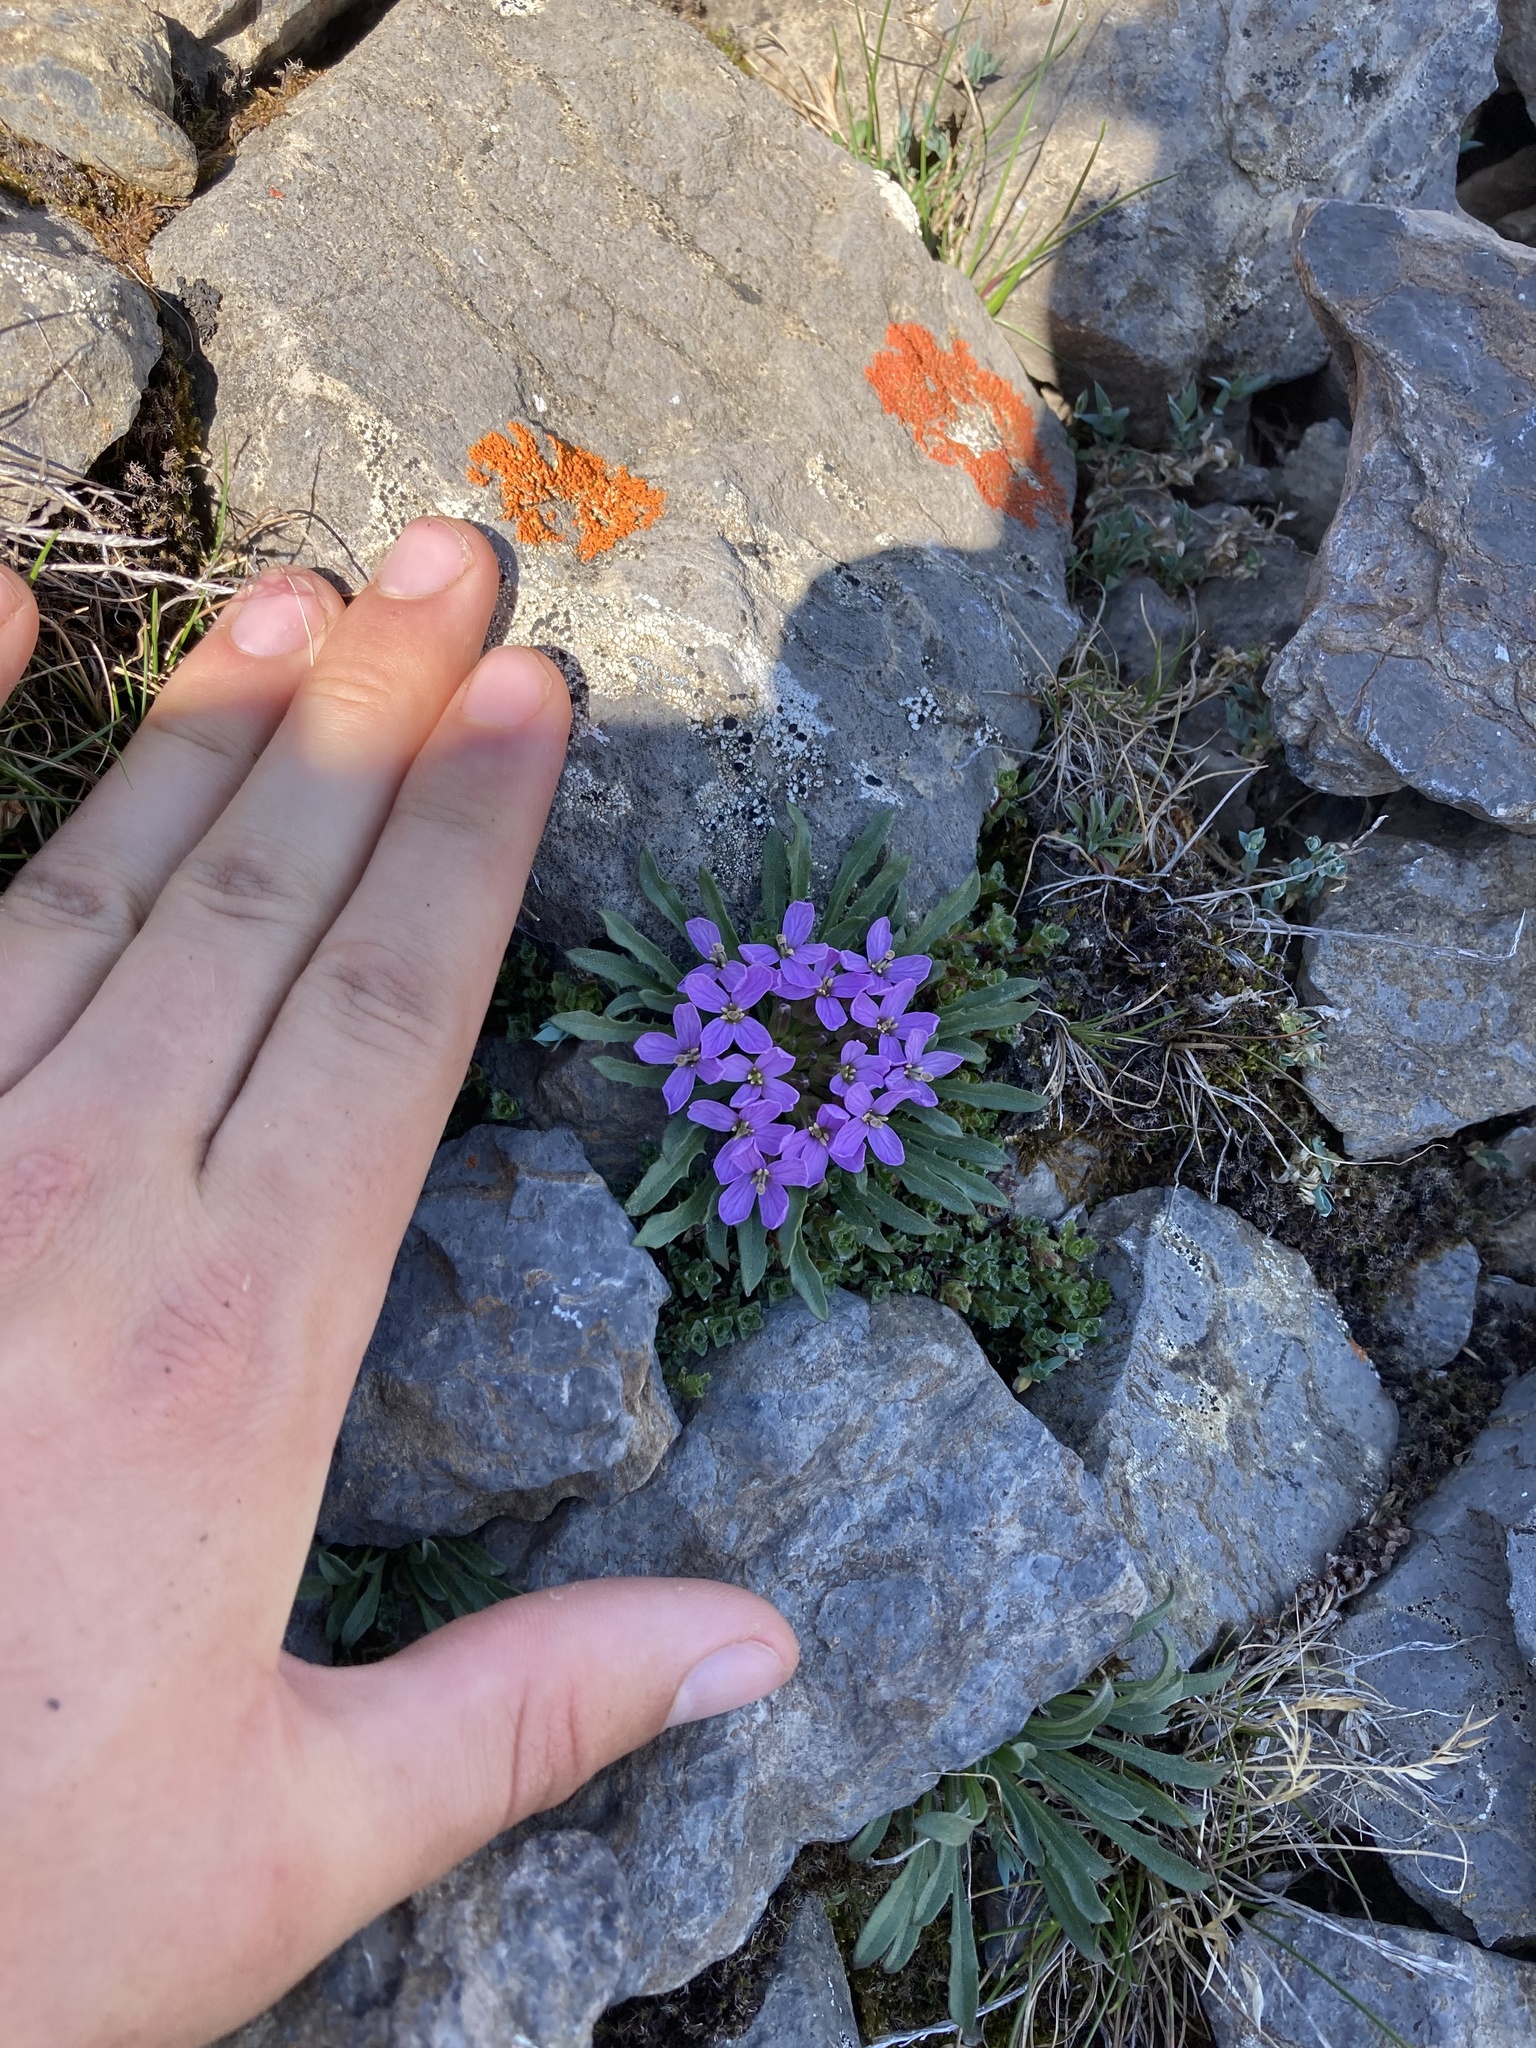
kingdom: Plantae
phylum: Tracheophyta
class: Magnoliopsida
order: Brassicales
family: Brassicaceae
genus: Erysimum
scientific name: Erysimum pallasii
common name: Pallas' wallflower
